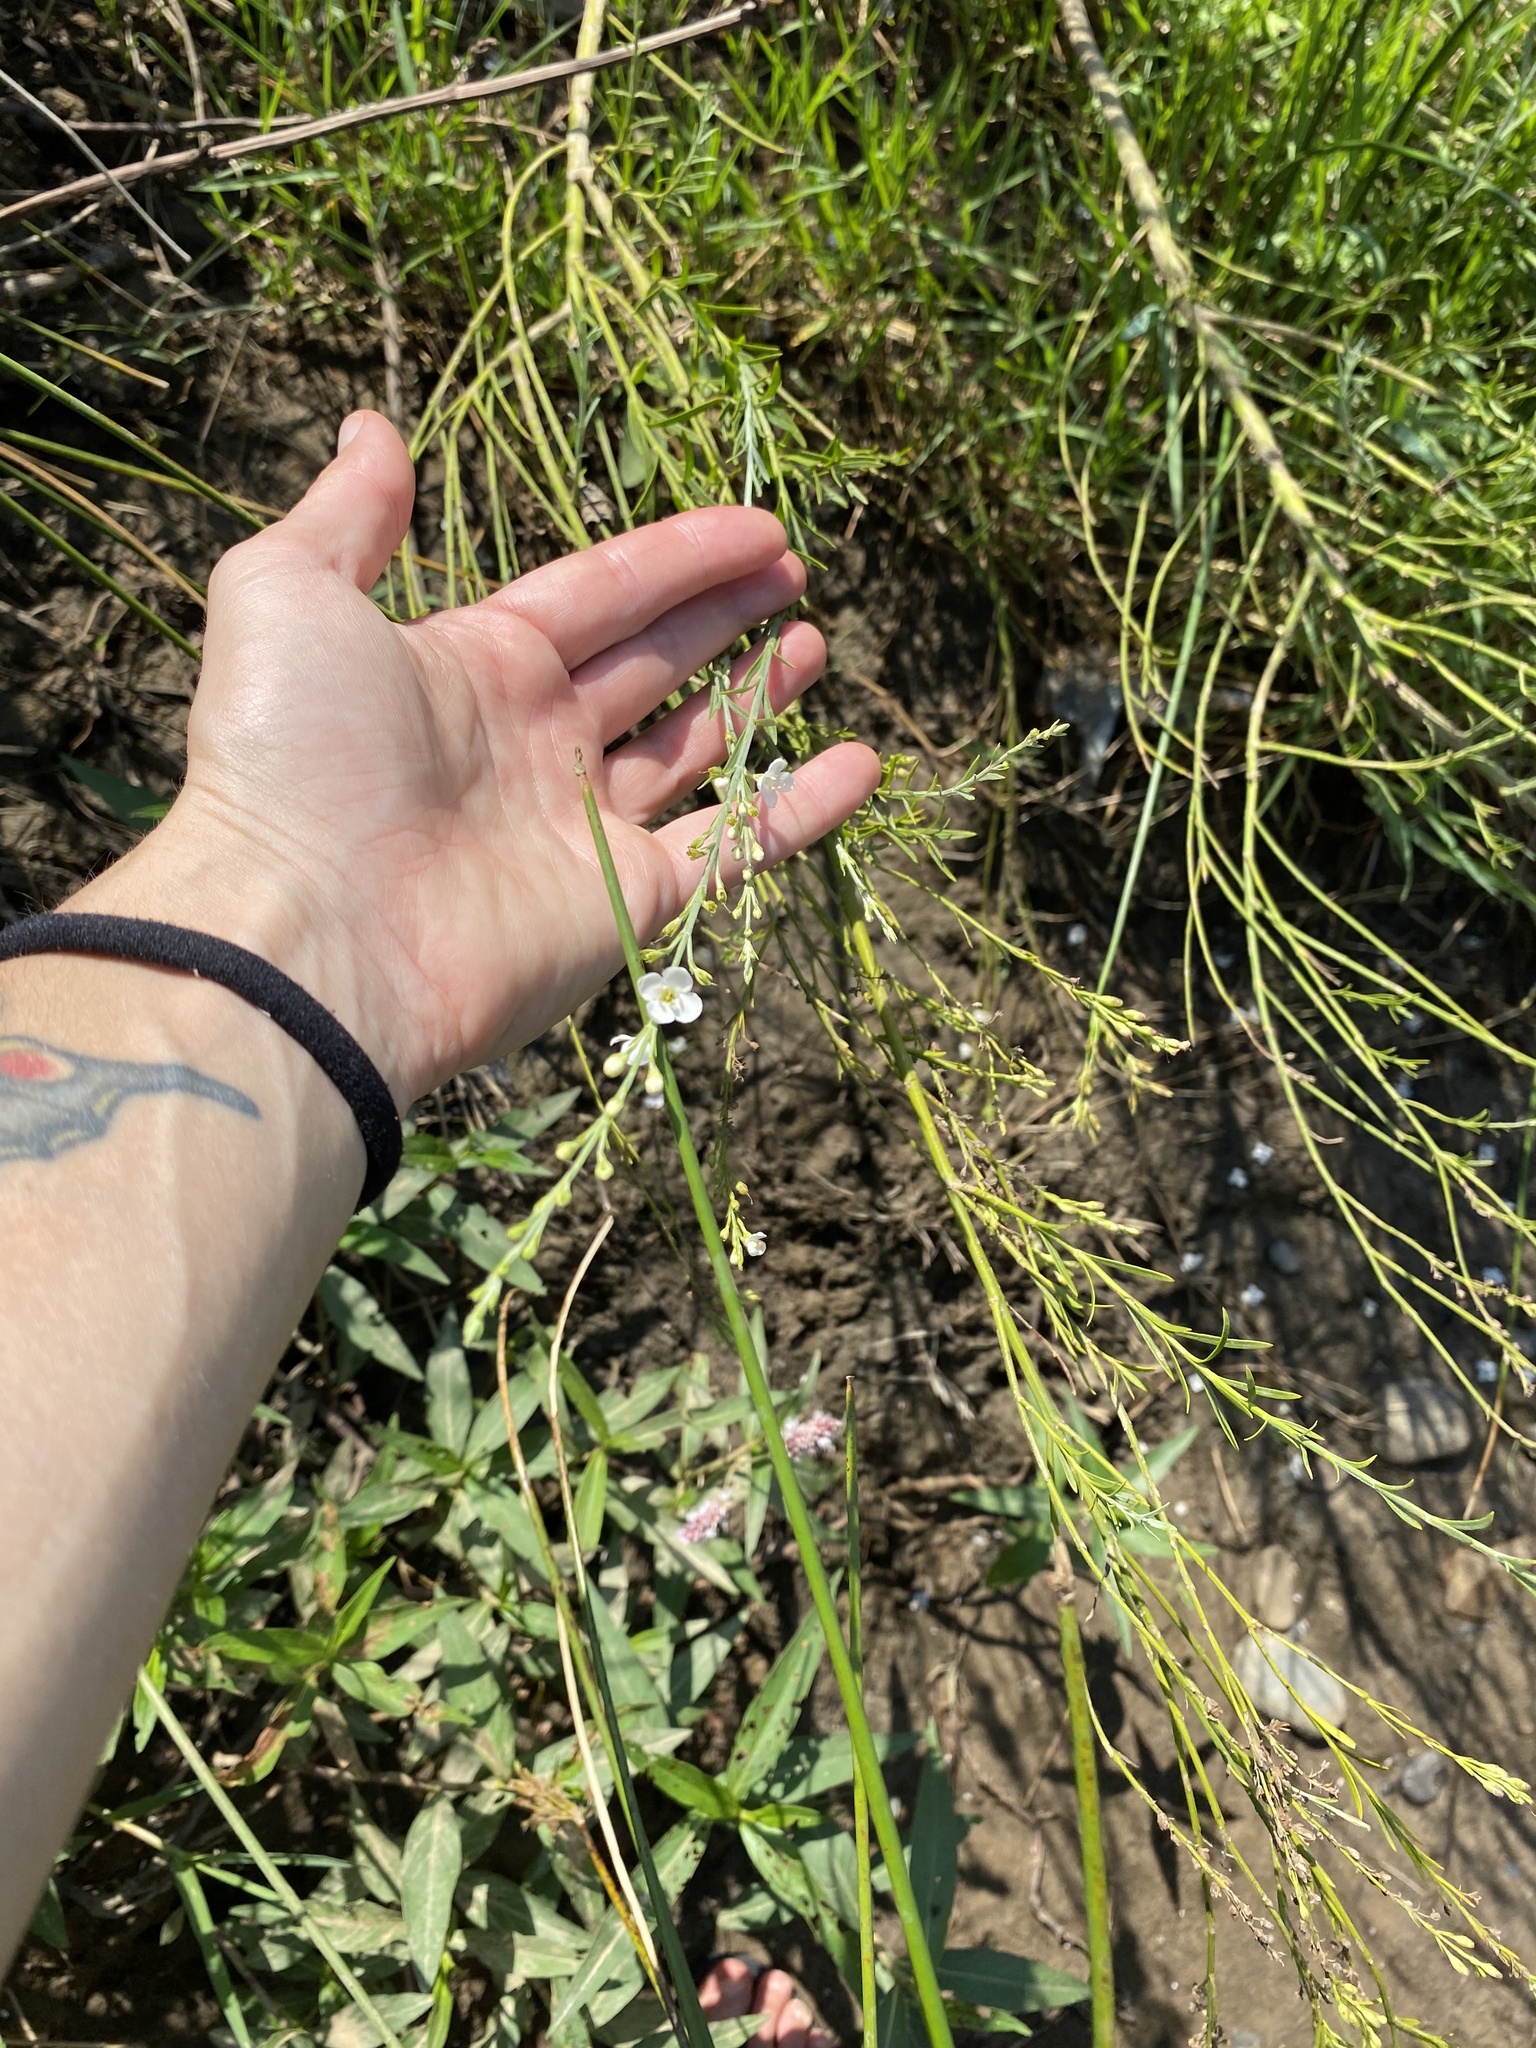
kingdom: Plantae
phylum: Tracheophyta
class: Magnoliopsida
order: Lamiales
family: Scrophulariaceae
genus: Buddleja
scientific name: Buddleja virgata
